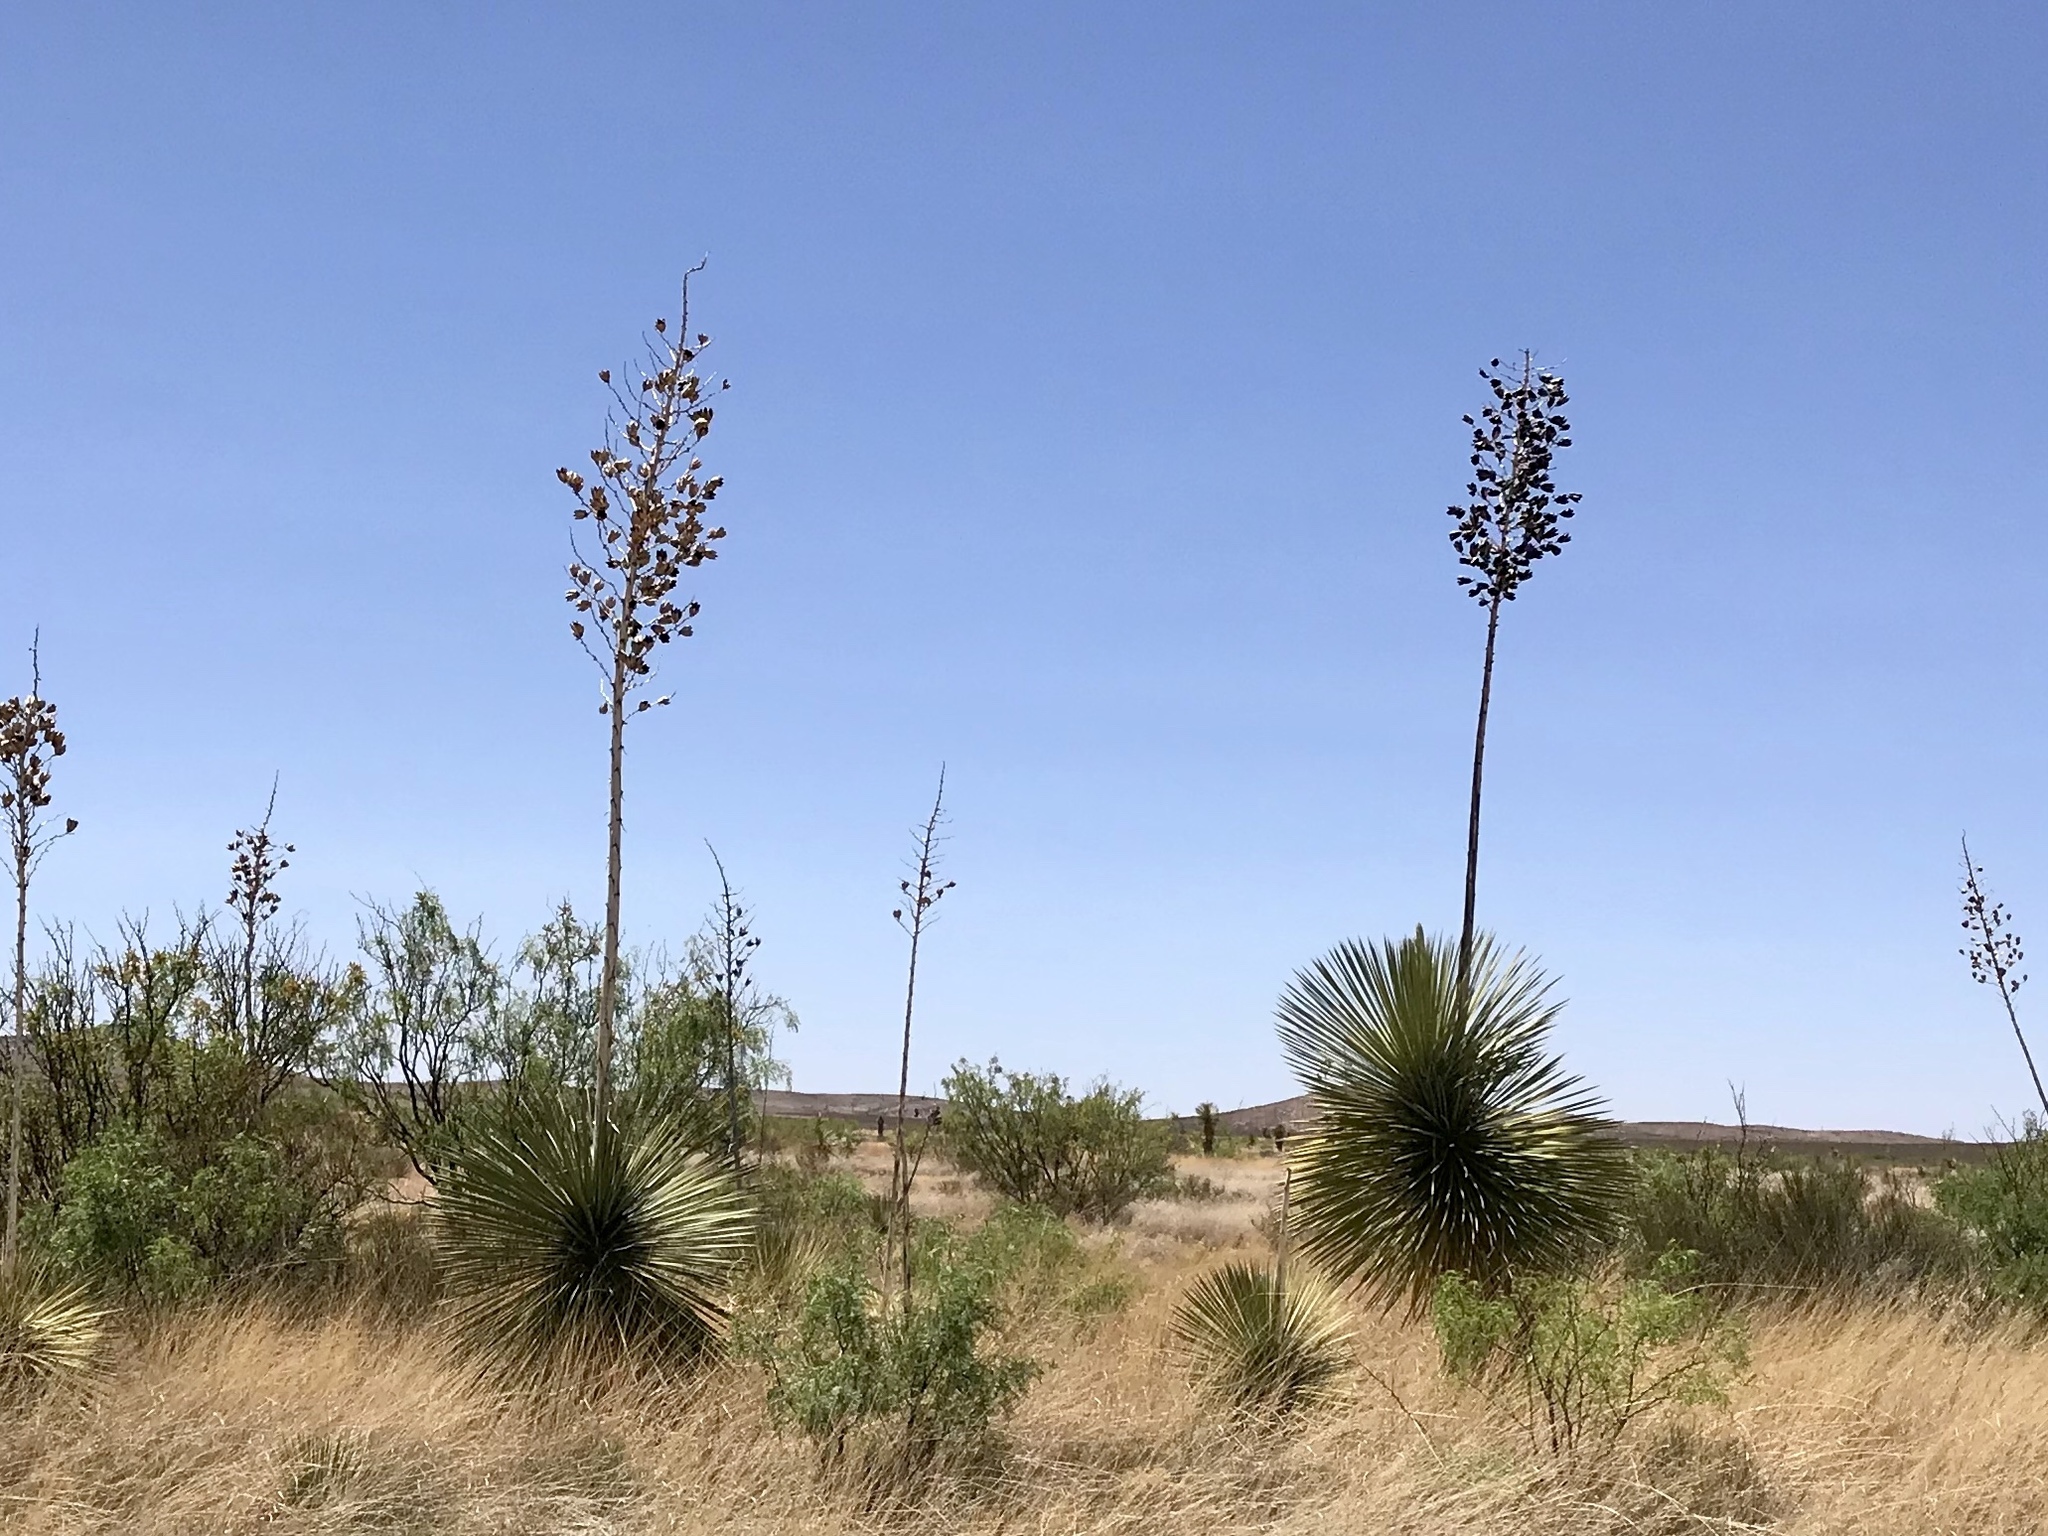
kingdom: Plantae
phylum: Tracheophyta
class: Liliopsida
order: Asparagales
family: Asparagaceae
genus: Yucca
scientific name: Yucca elata
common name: Palmella
